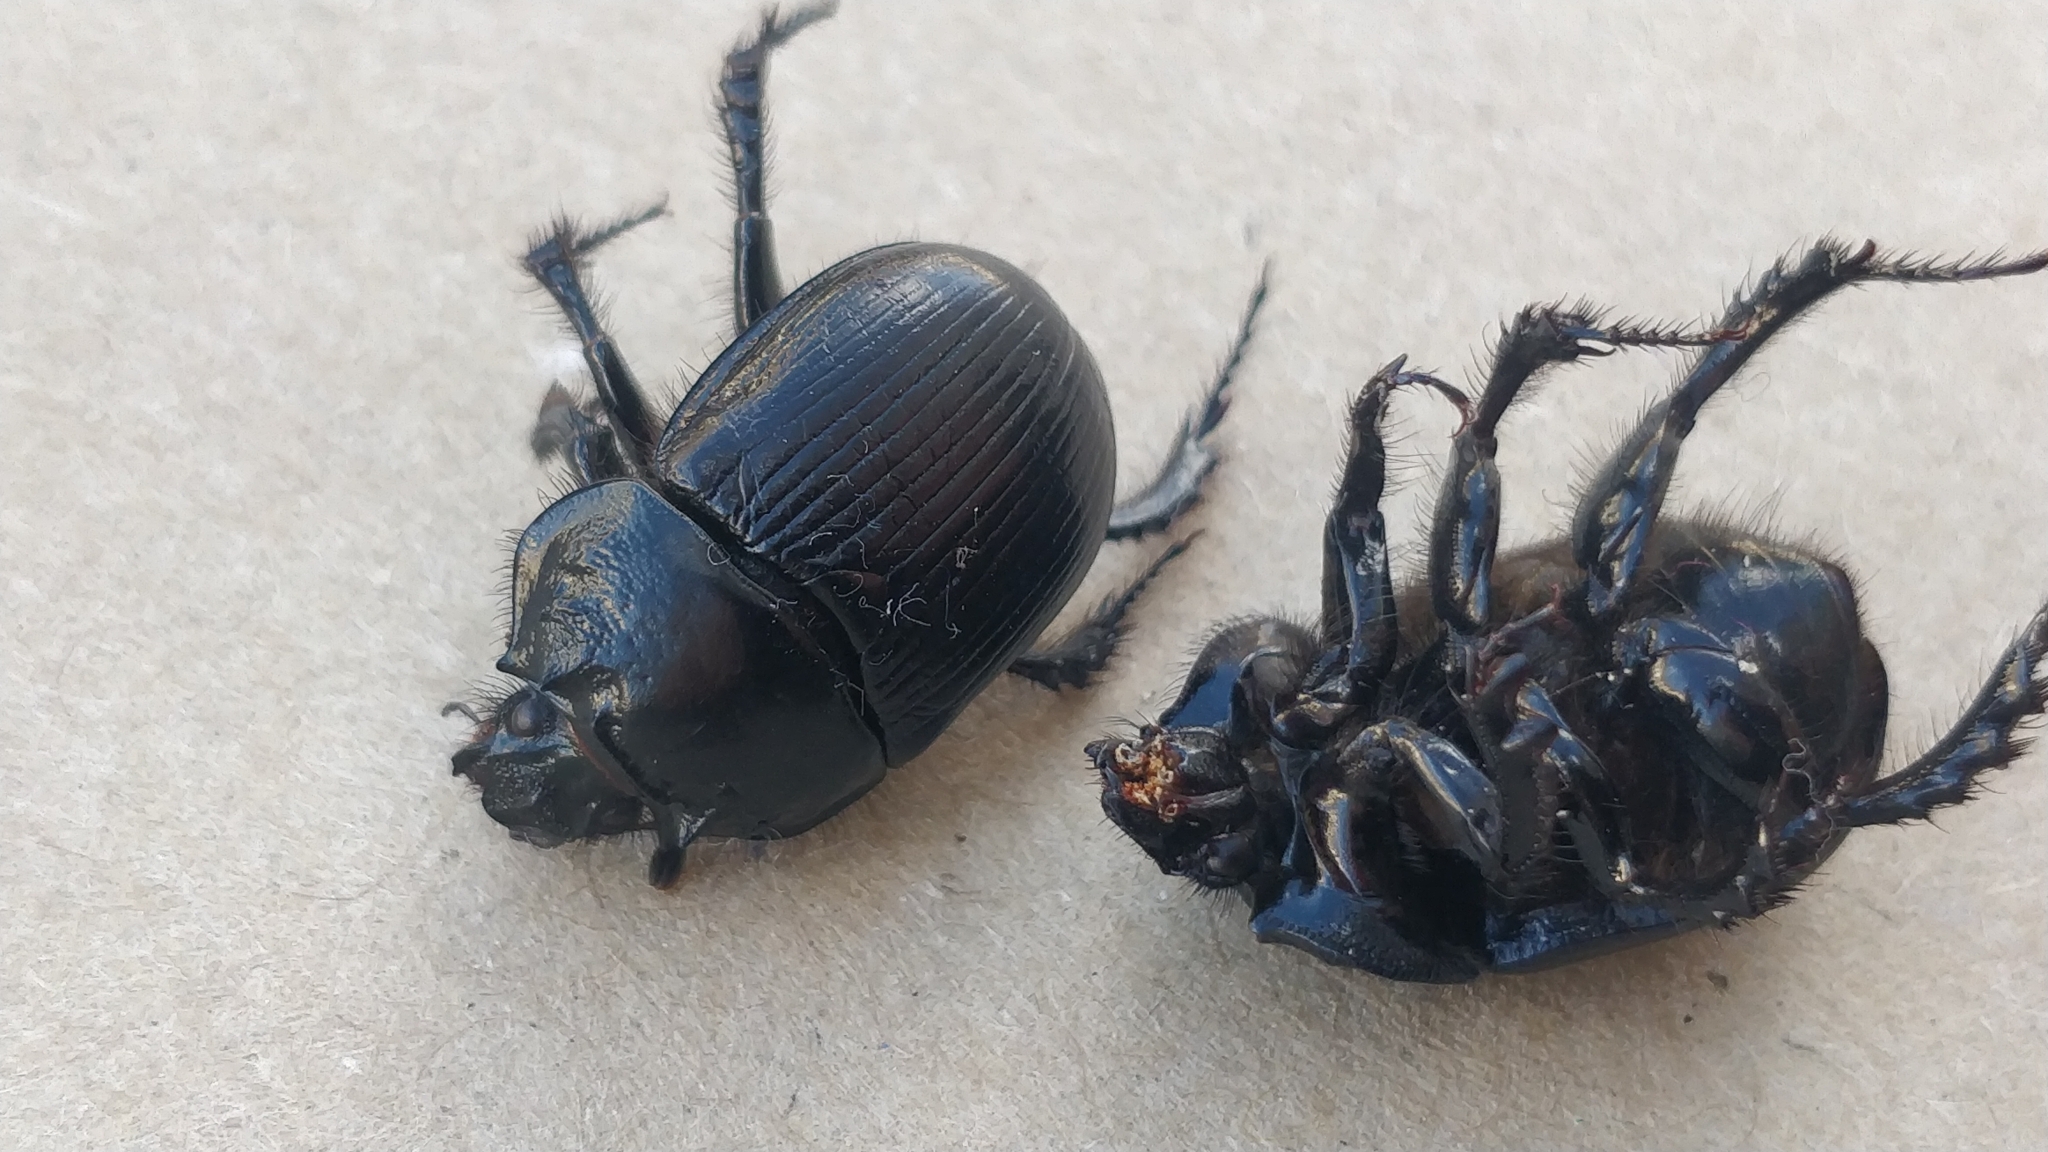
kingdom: Animalia
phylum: Arthropoda
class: Insecta
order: Coleoptera
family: Geotrupidae
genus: Typhaeus
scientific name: Typhaeus typhoeus
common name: Minotaur beetle
